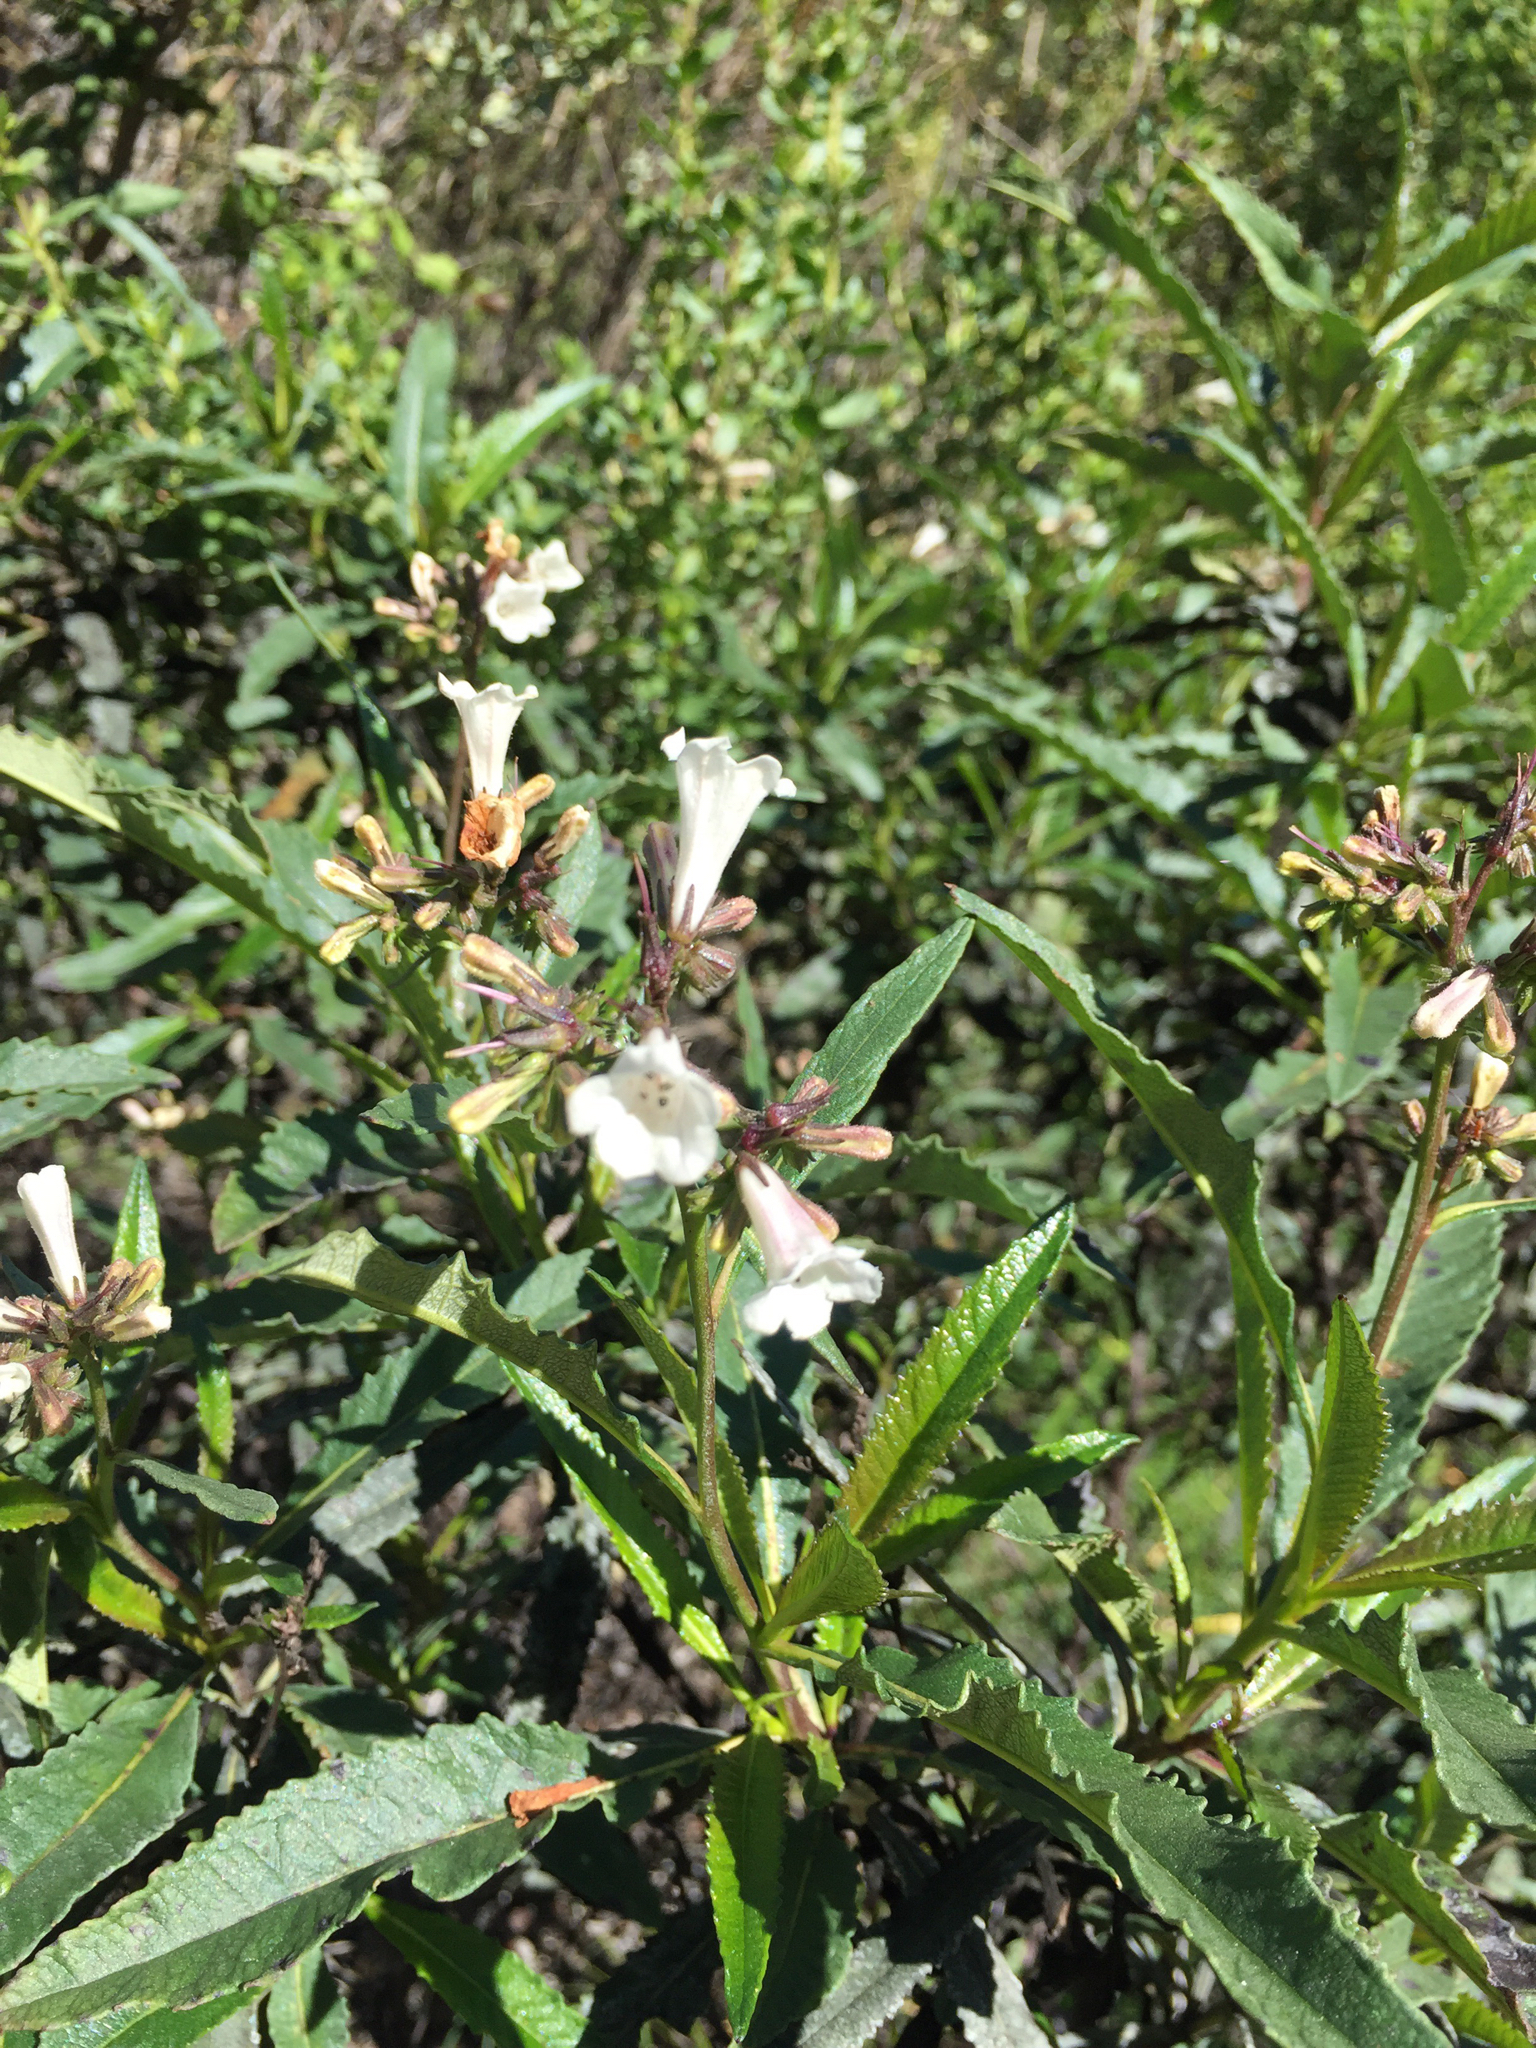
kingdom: Plantae
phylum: Tracheophyta
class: Magnoliopsida
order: Boraginales
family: Namaceae
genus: Eriodictyon
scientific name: Eriodictyon californicum
